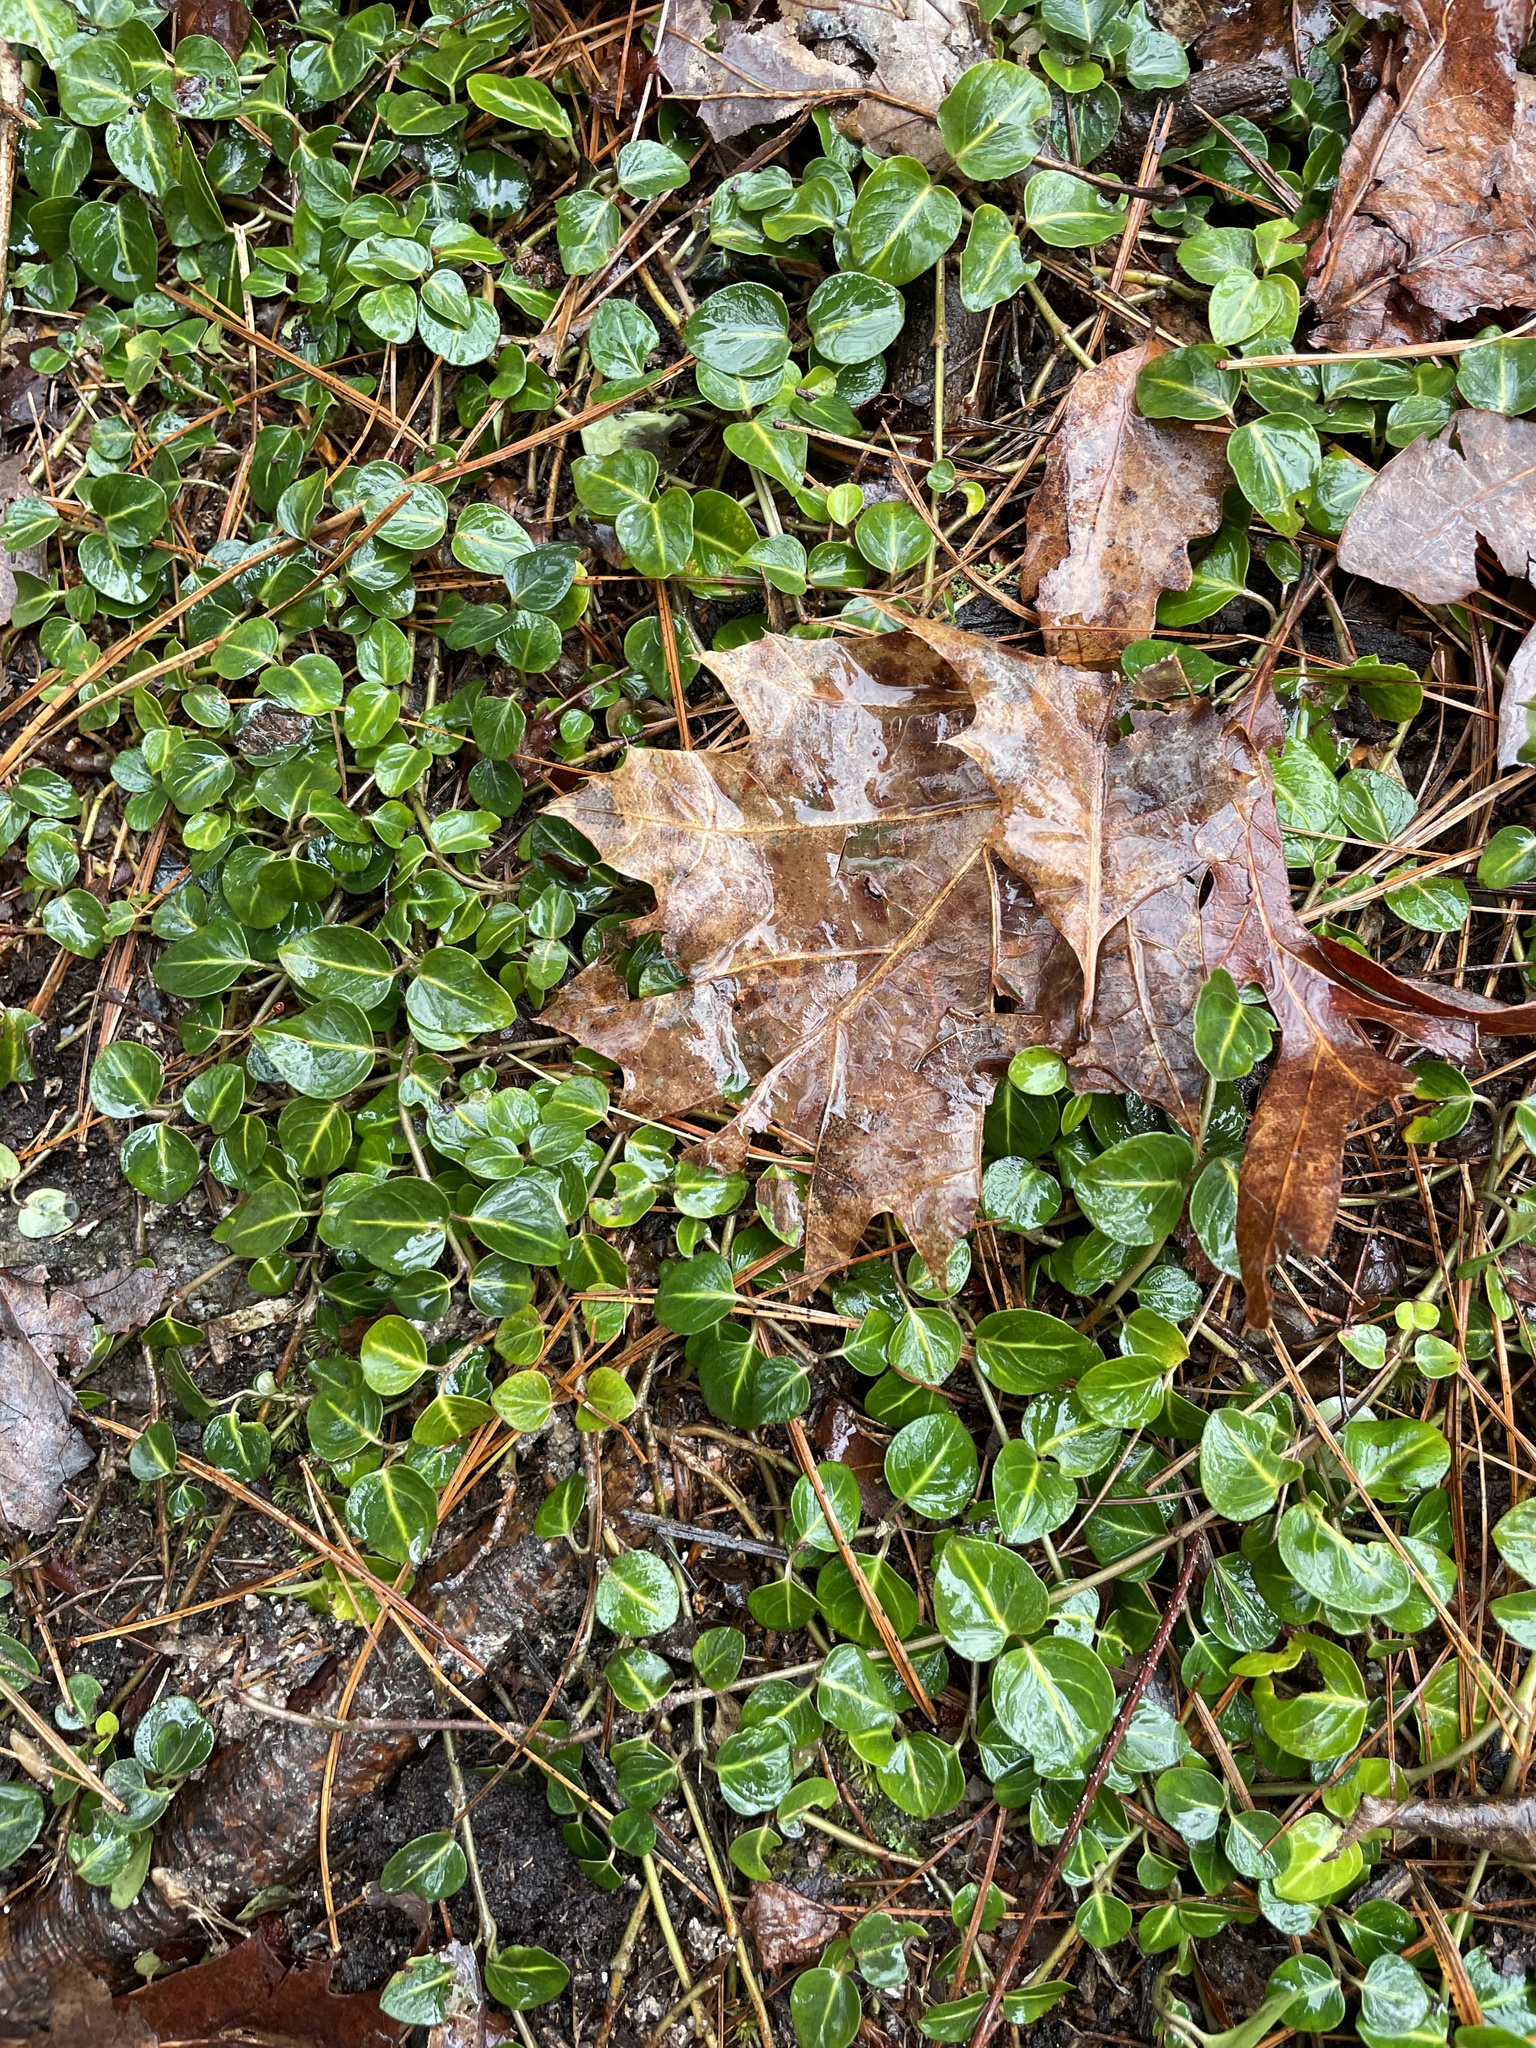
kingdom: Plantae
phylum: Tracheophyta
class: Magnoliopsida
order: Gentianales
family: Rubiaceae
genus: Mitchella
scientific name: Mitchella repens
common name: Partridge-berry
